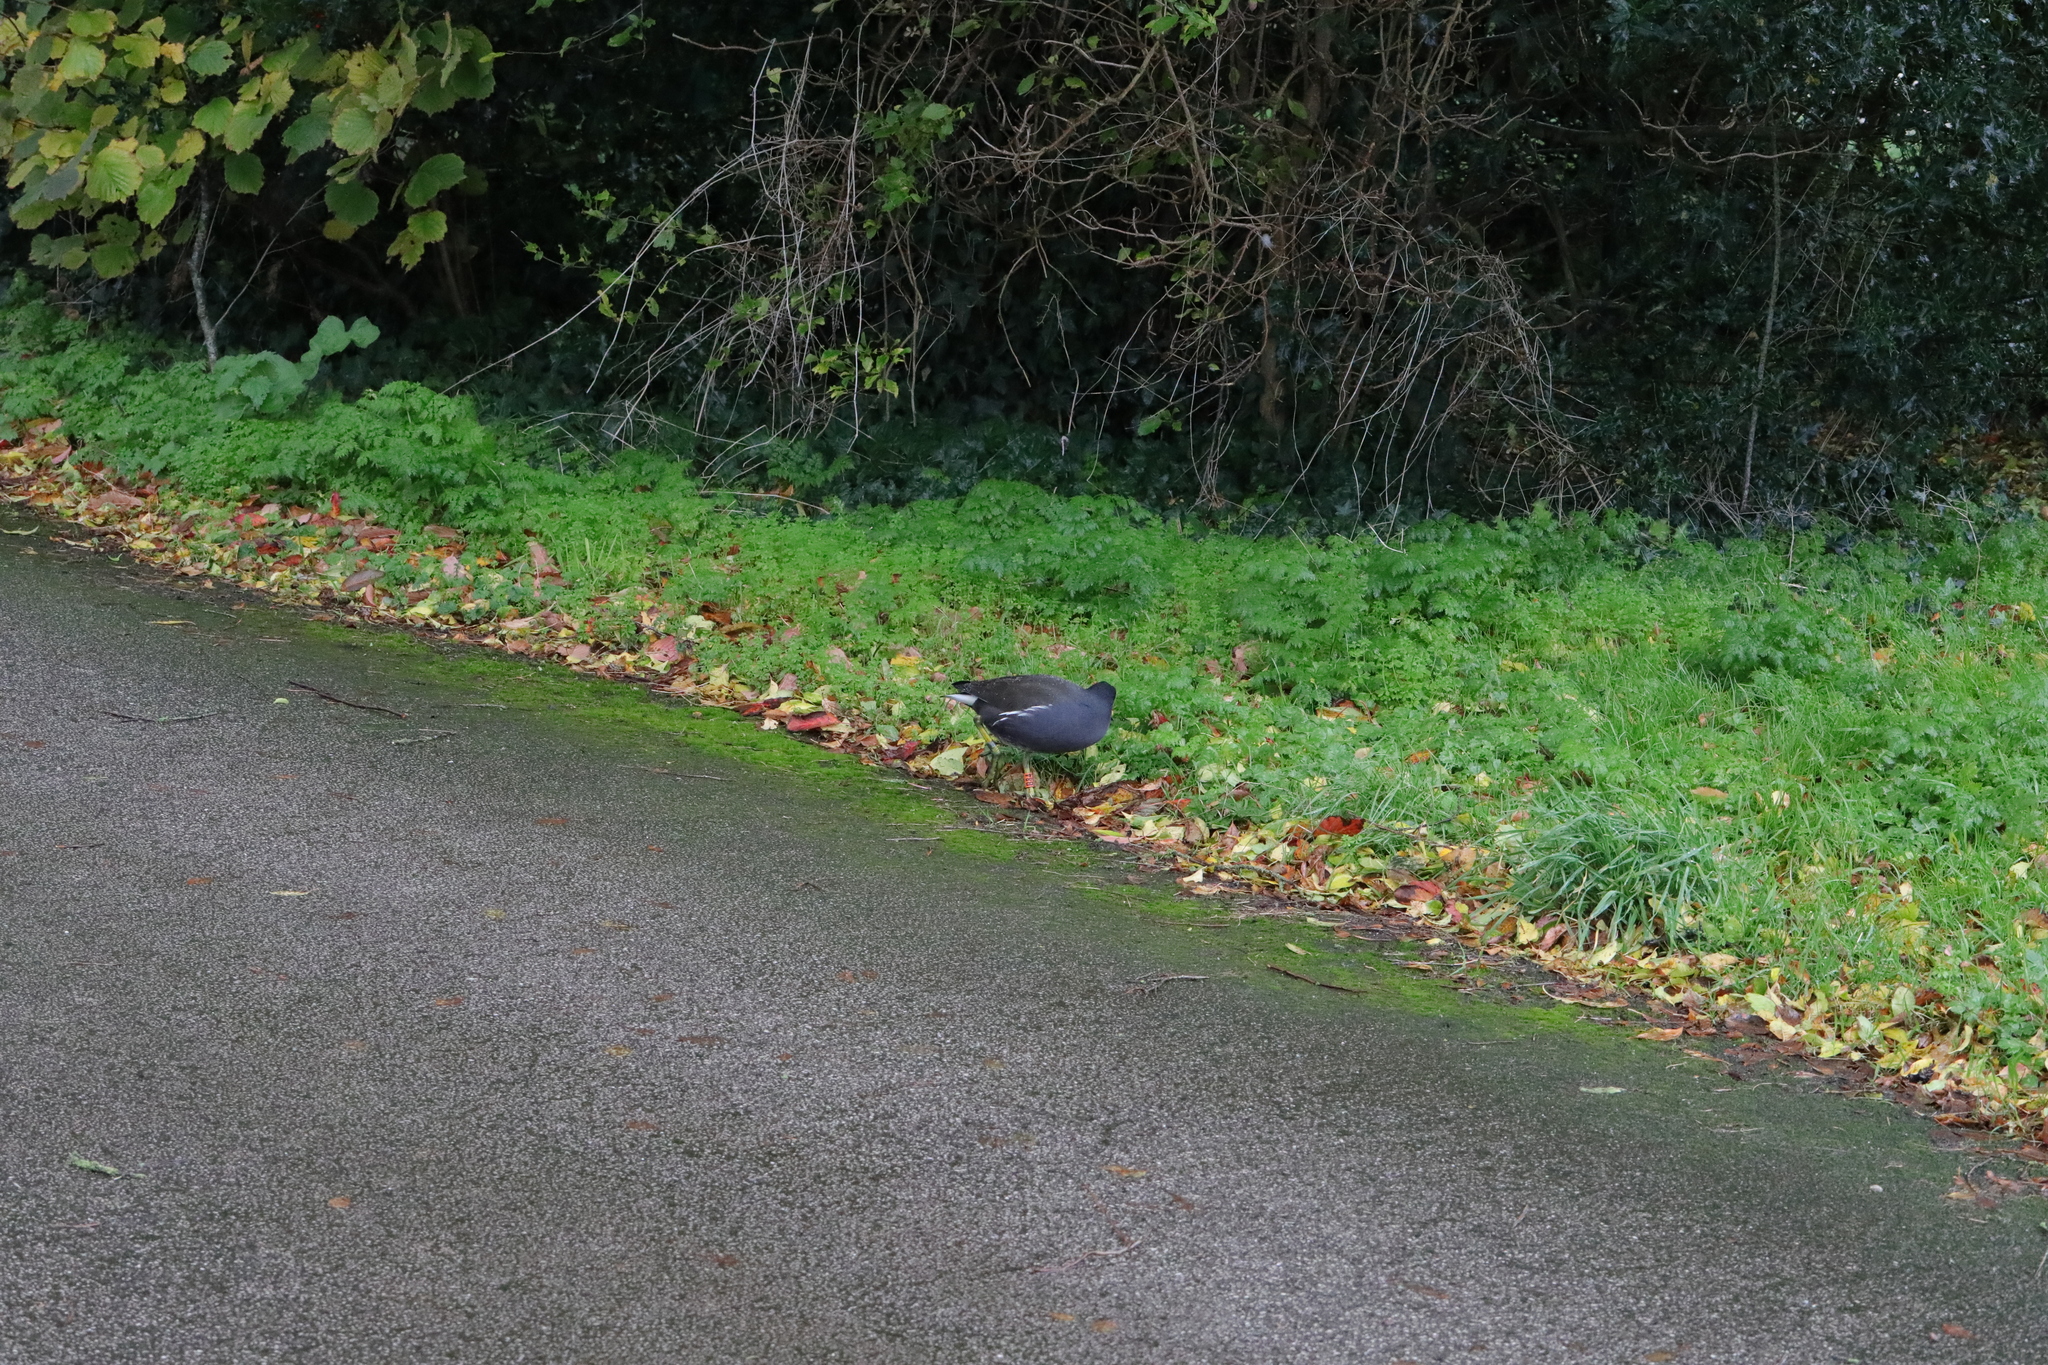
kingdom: Animalia
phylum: Chordata
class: Aves
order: Gruiformes
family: Rallidae
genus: Gallinula
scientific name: Gallinula chloropus
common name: Common moorhen
